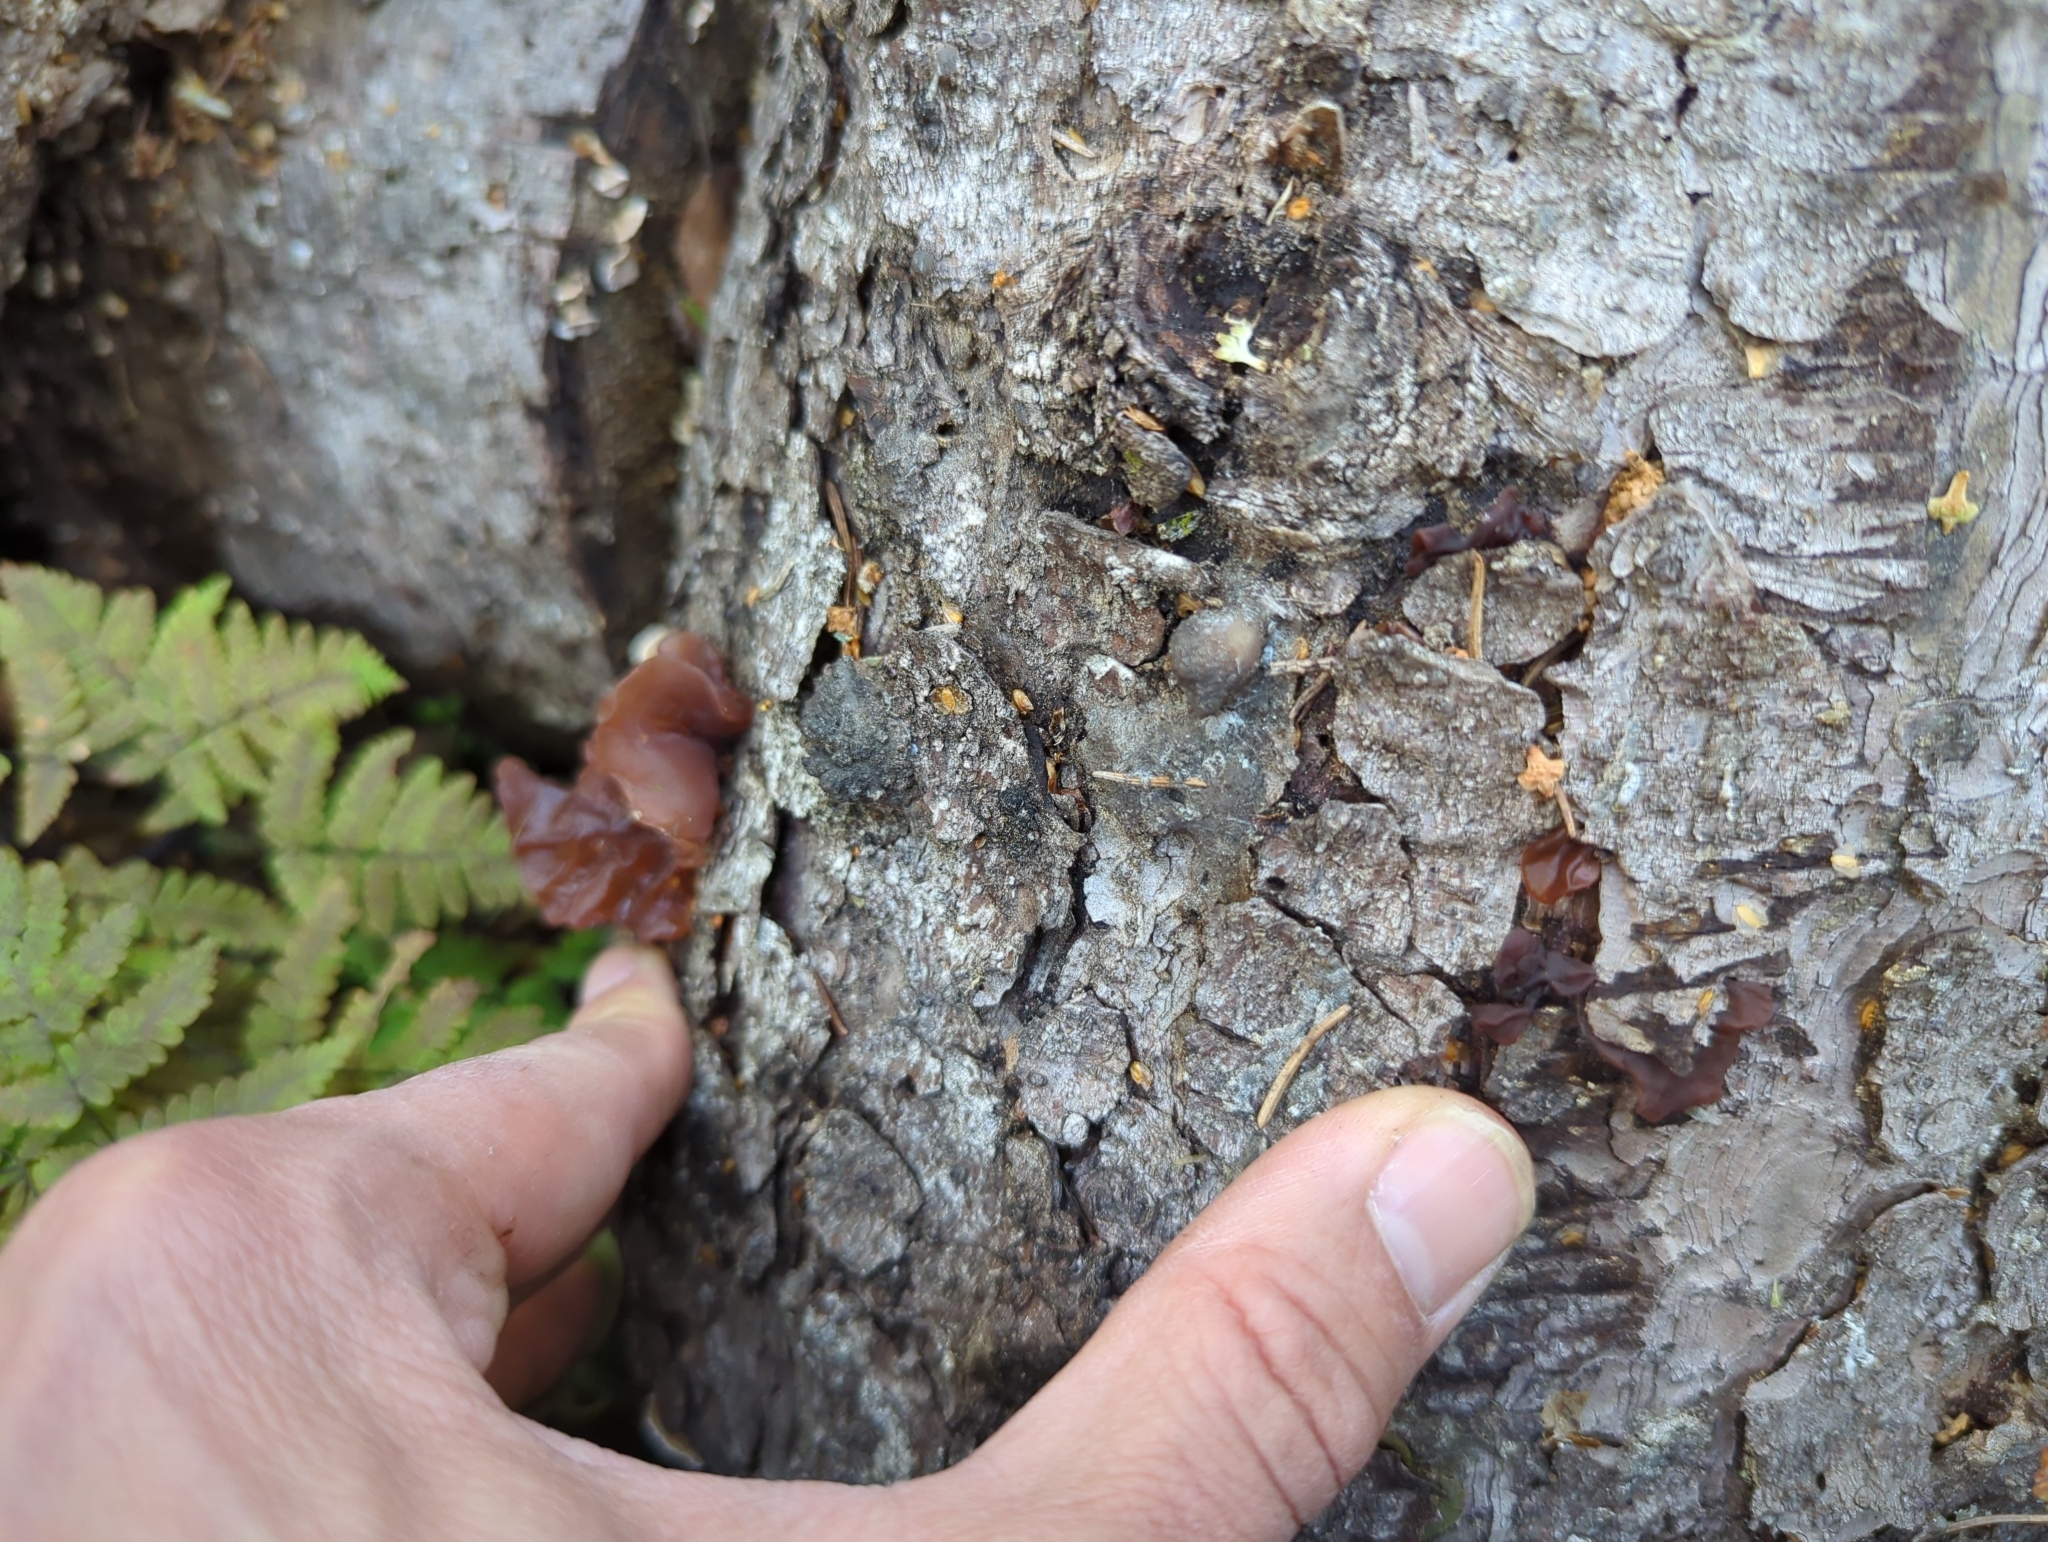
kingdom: Fungi
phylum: Basidiomycota
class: Tremellomycetes
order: Tremellales
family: Tremellaceae
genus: Phaeotremella
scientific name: Phaeotremella foliacea
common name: Leafy brain
